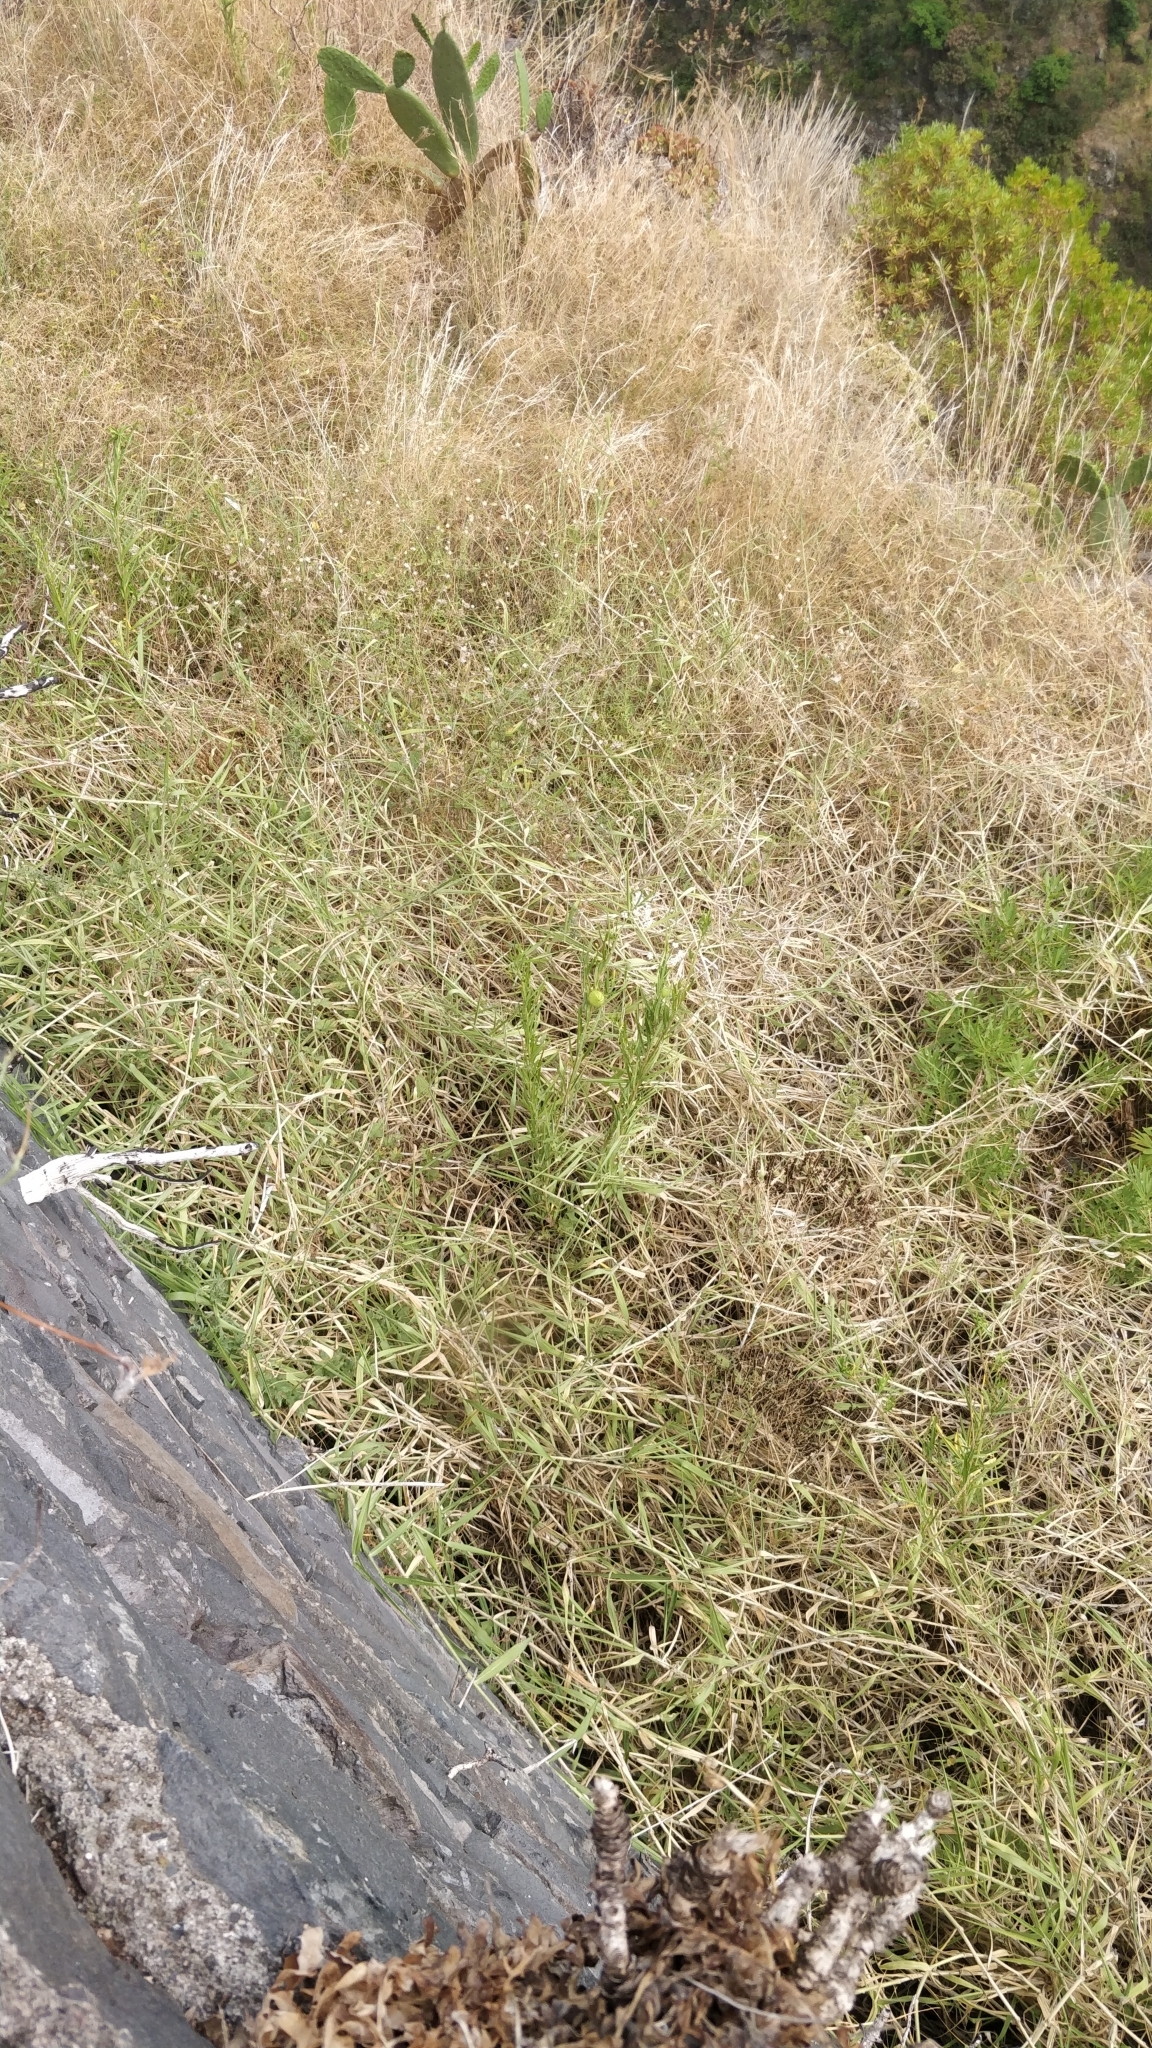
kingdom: Plantae
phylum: Tracheophyta
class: Magnoliopsida
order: Gentianales
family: Apocynaceae
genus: Gomphocarpus
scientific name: Gomphocarpus fruticosus
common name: Milkweed
